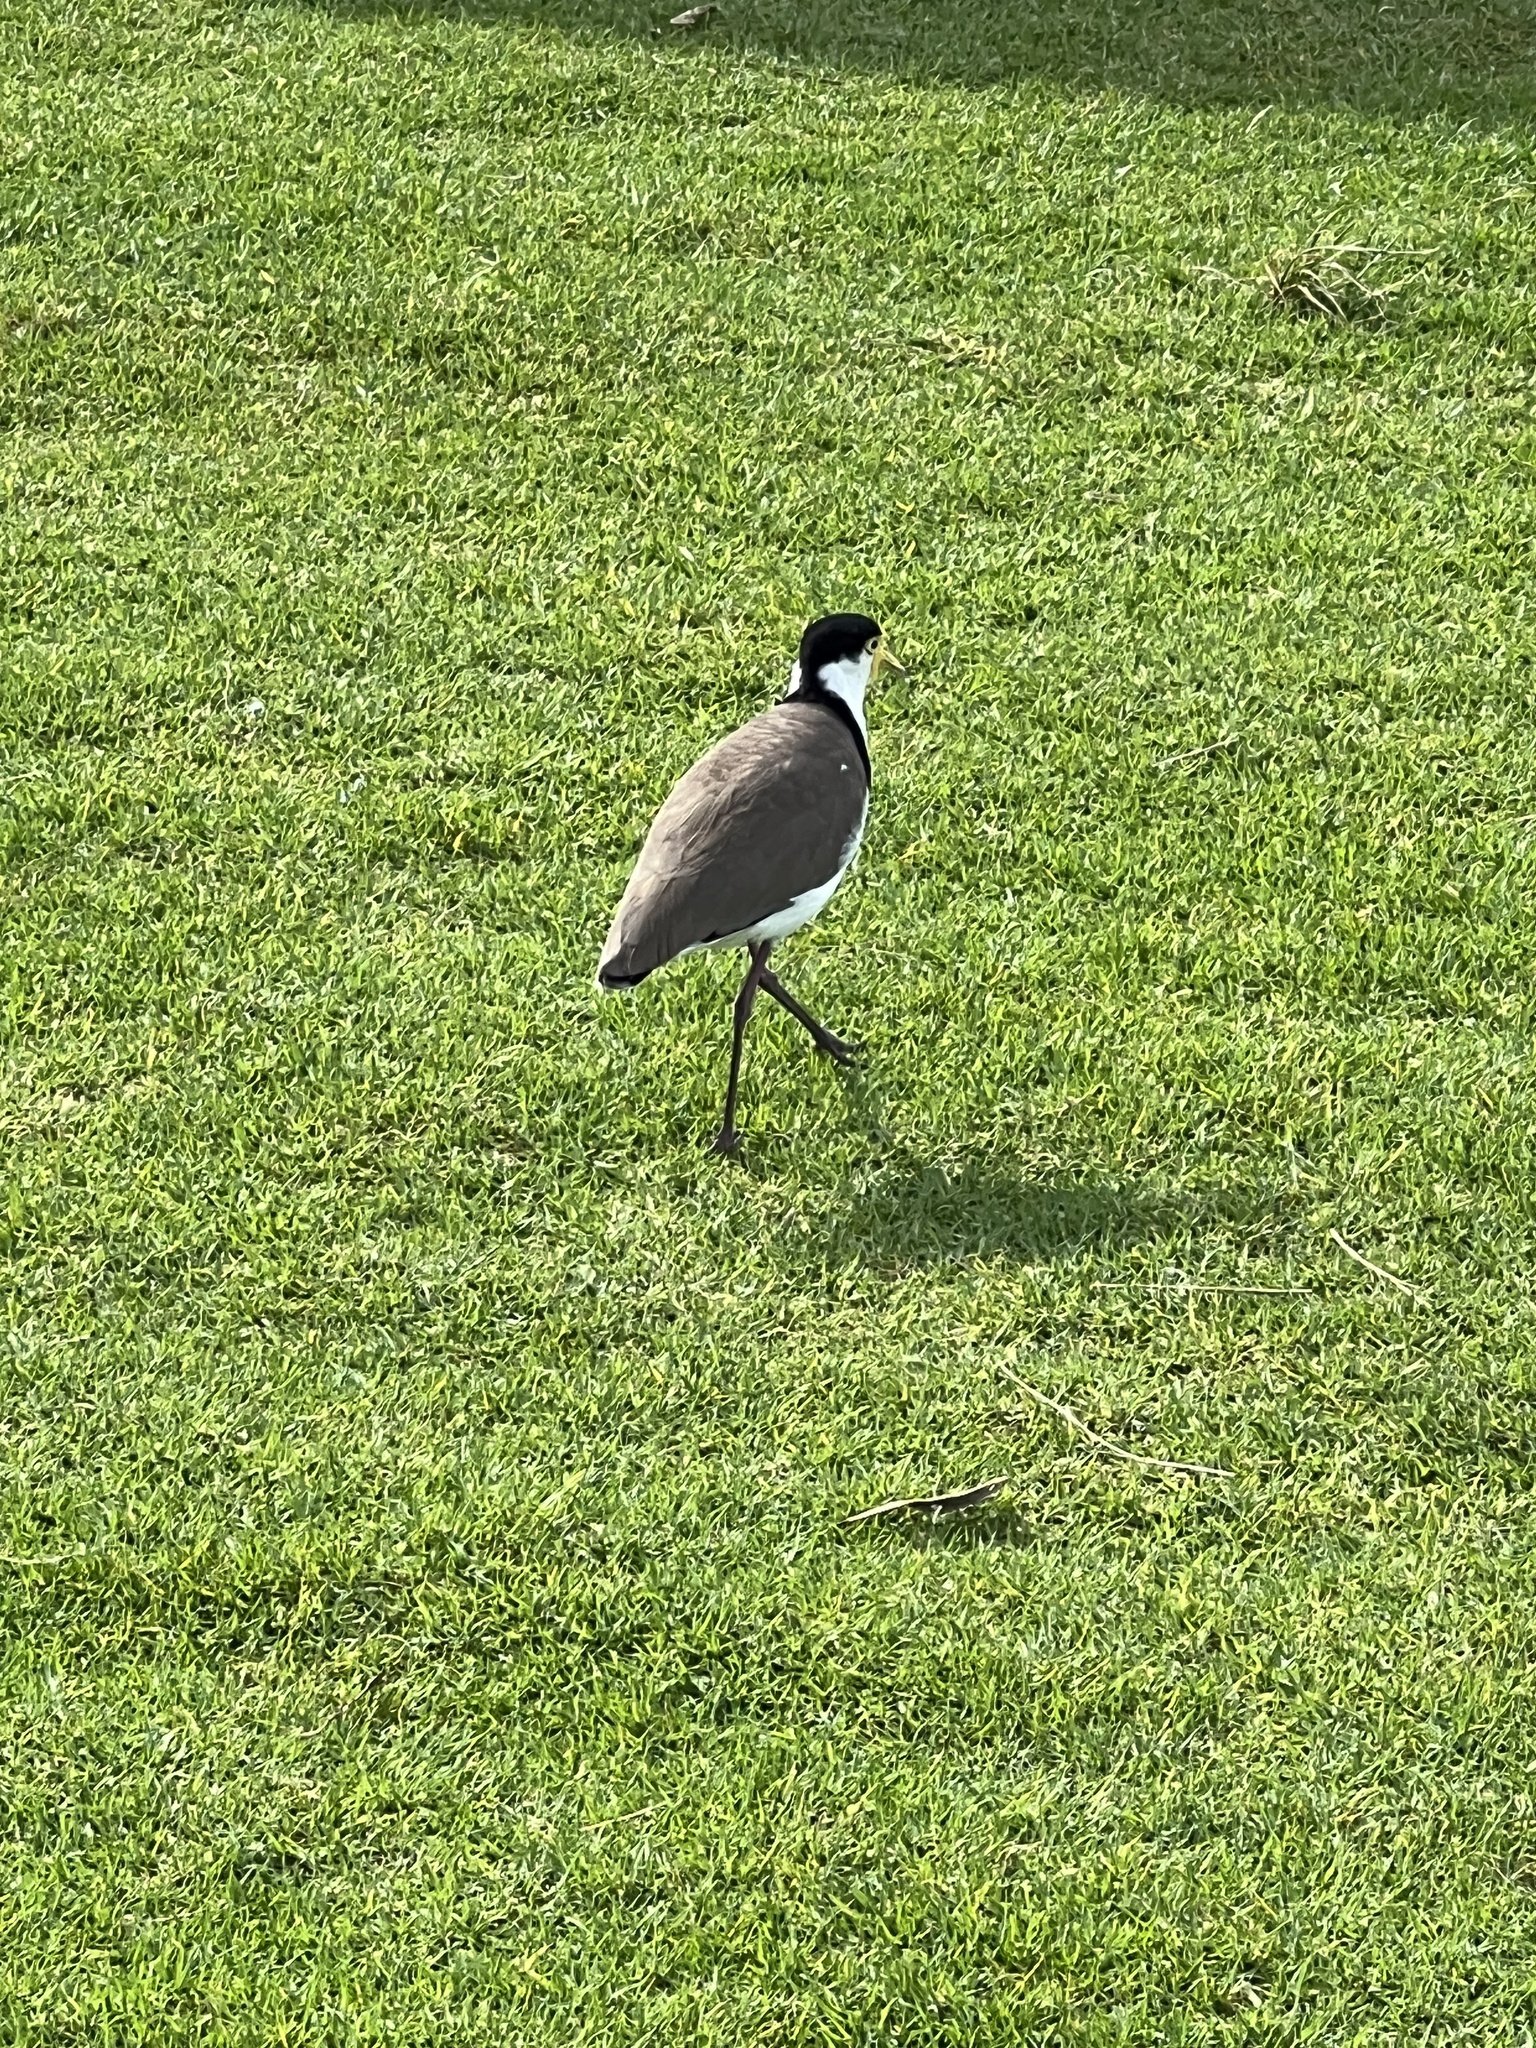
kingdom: Animalia
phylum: Chordata
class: Aves
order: Charadriiformes
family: Charadriidae
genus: Vanellus
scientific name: Vanellus miles
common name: Masked lapwing
